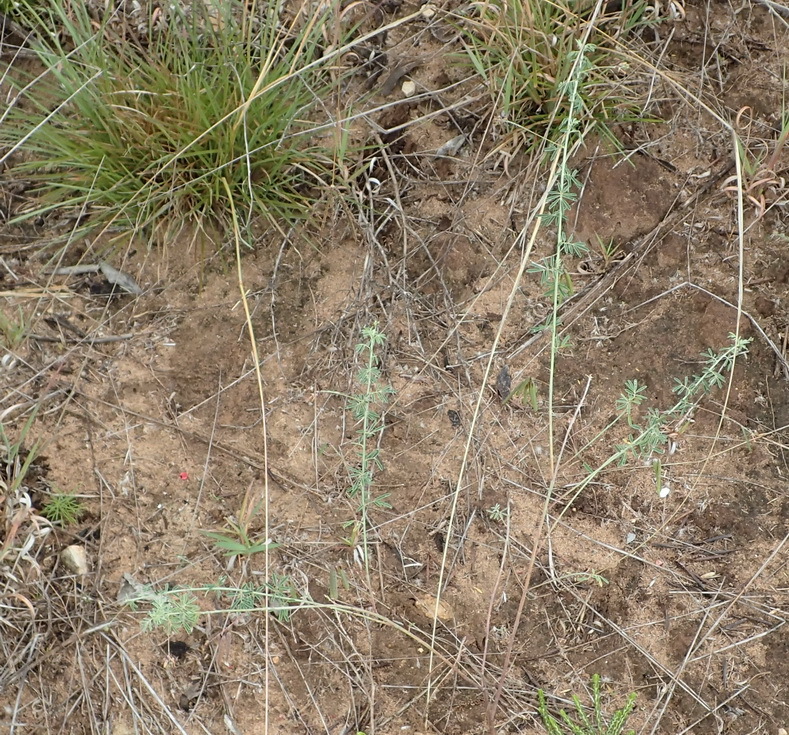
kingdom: Plantae
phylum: Tracheophyta
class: Magnoliopsida
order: Fabales
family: Fabaceae
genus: Indigofera
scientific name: Indigofera verrucosa
